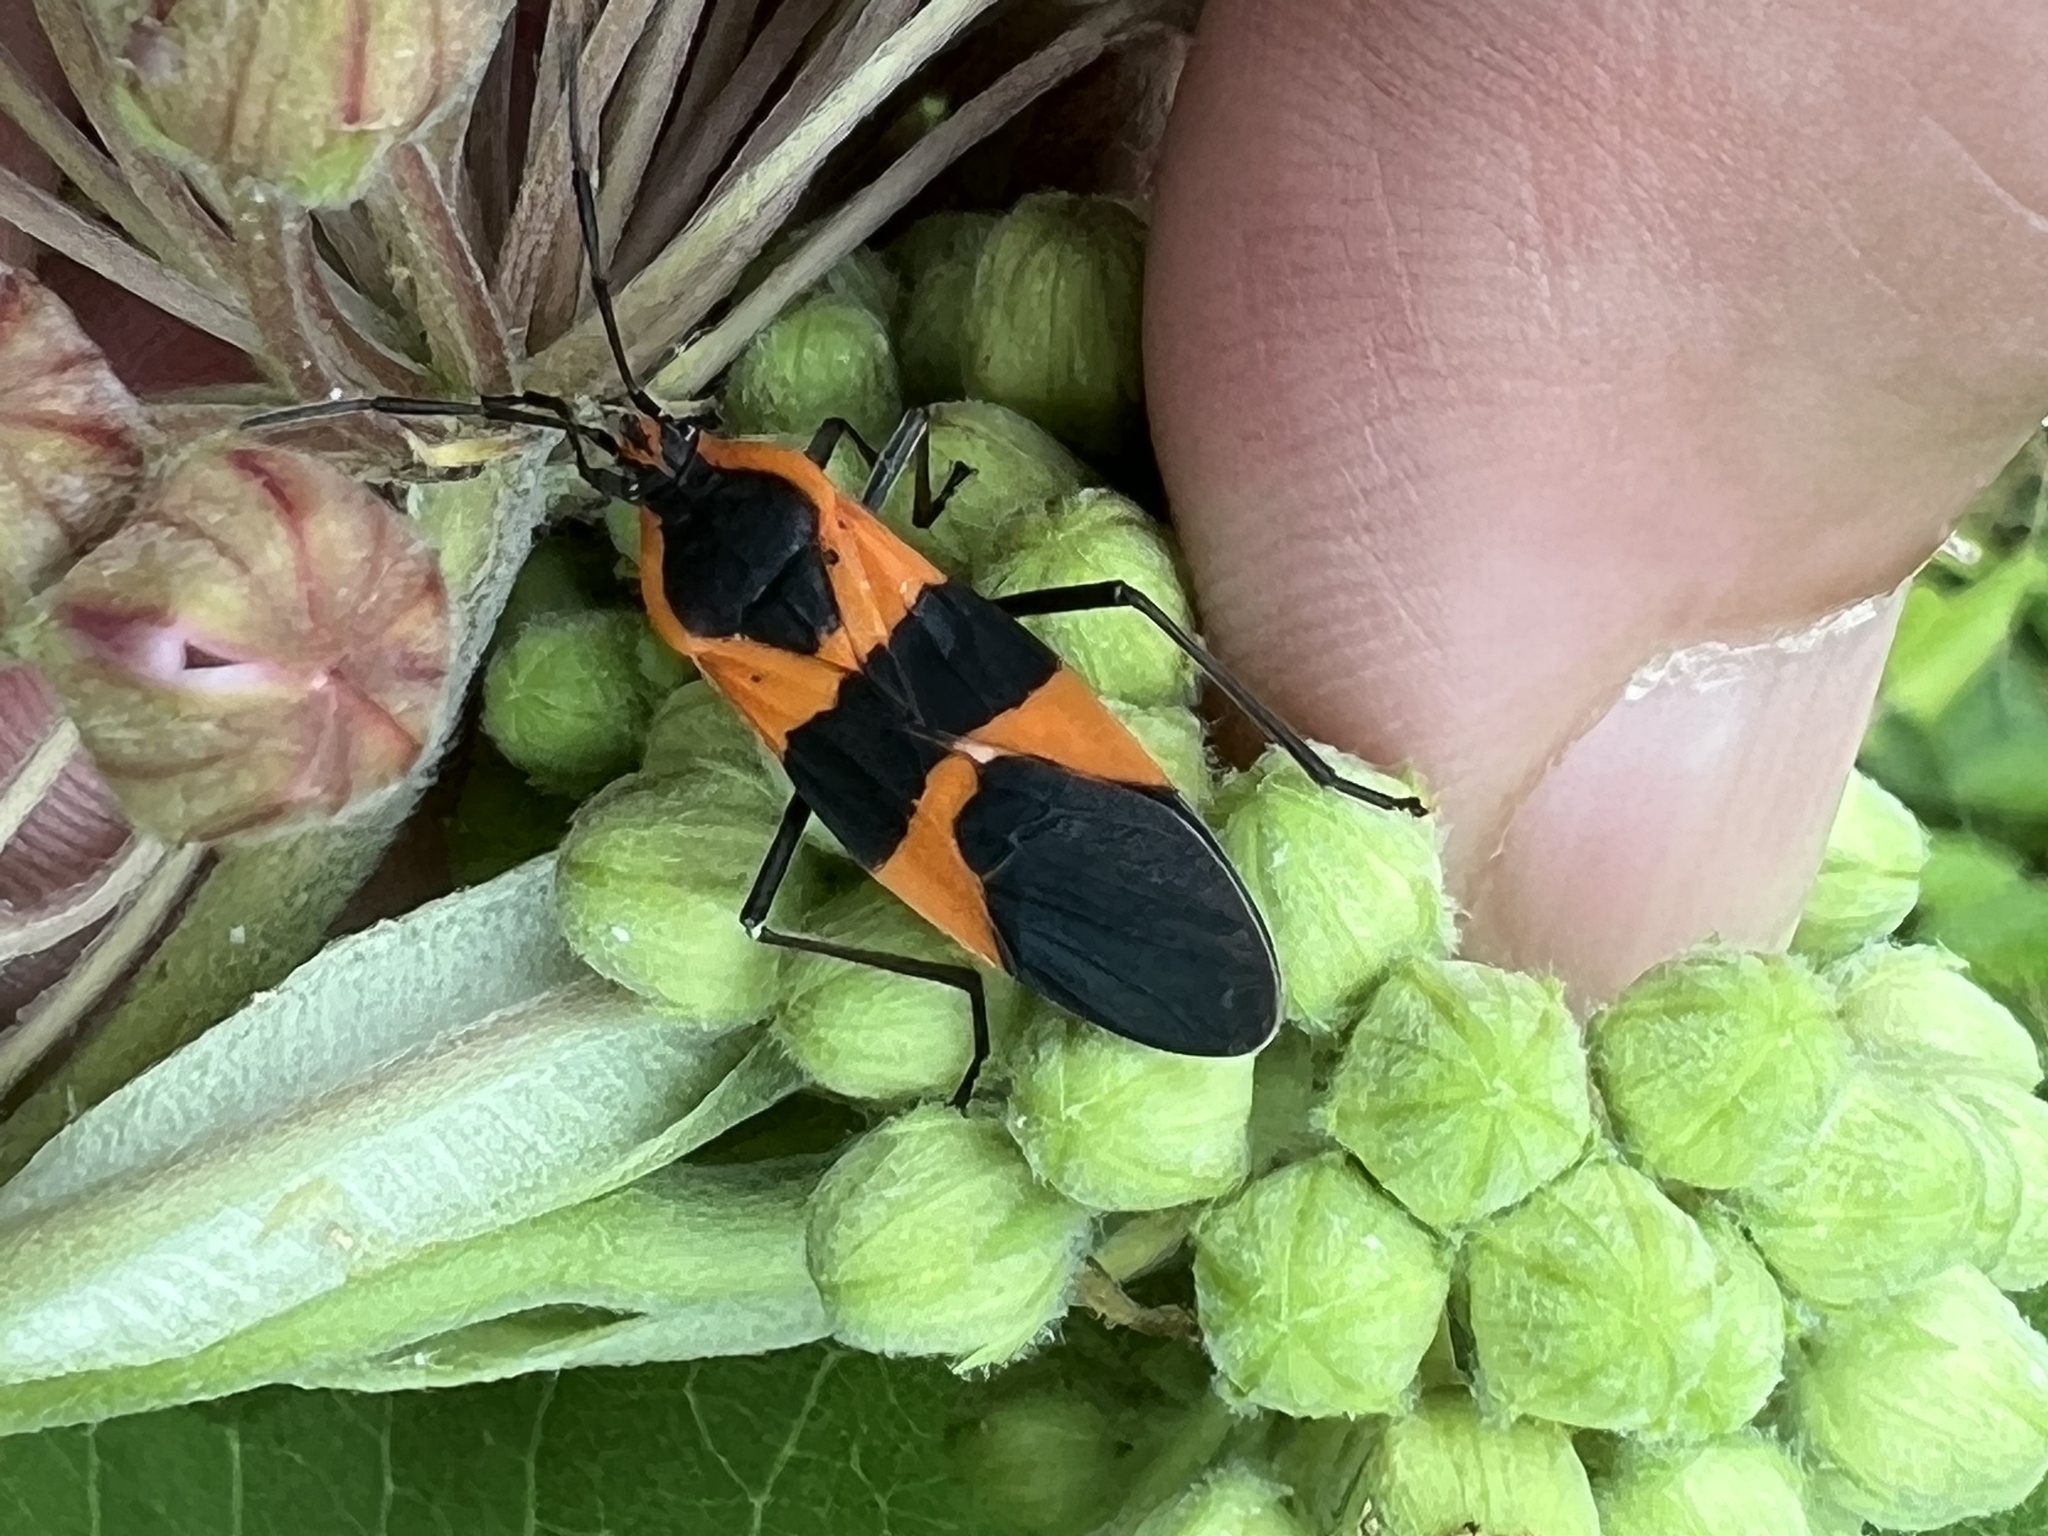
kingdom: Animalia
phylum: Arthropoda
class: Insecta
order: Hemiptera
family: Lygaeidae
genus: Oncopeltus
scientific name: Oncopeltus fasciatus
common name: Large milkweed bug
